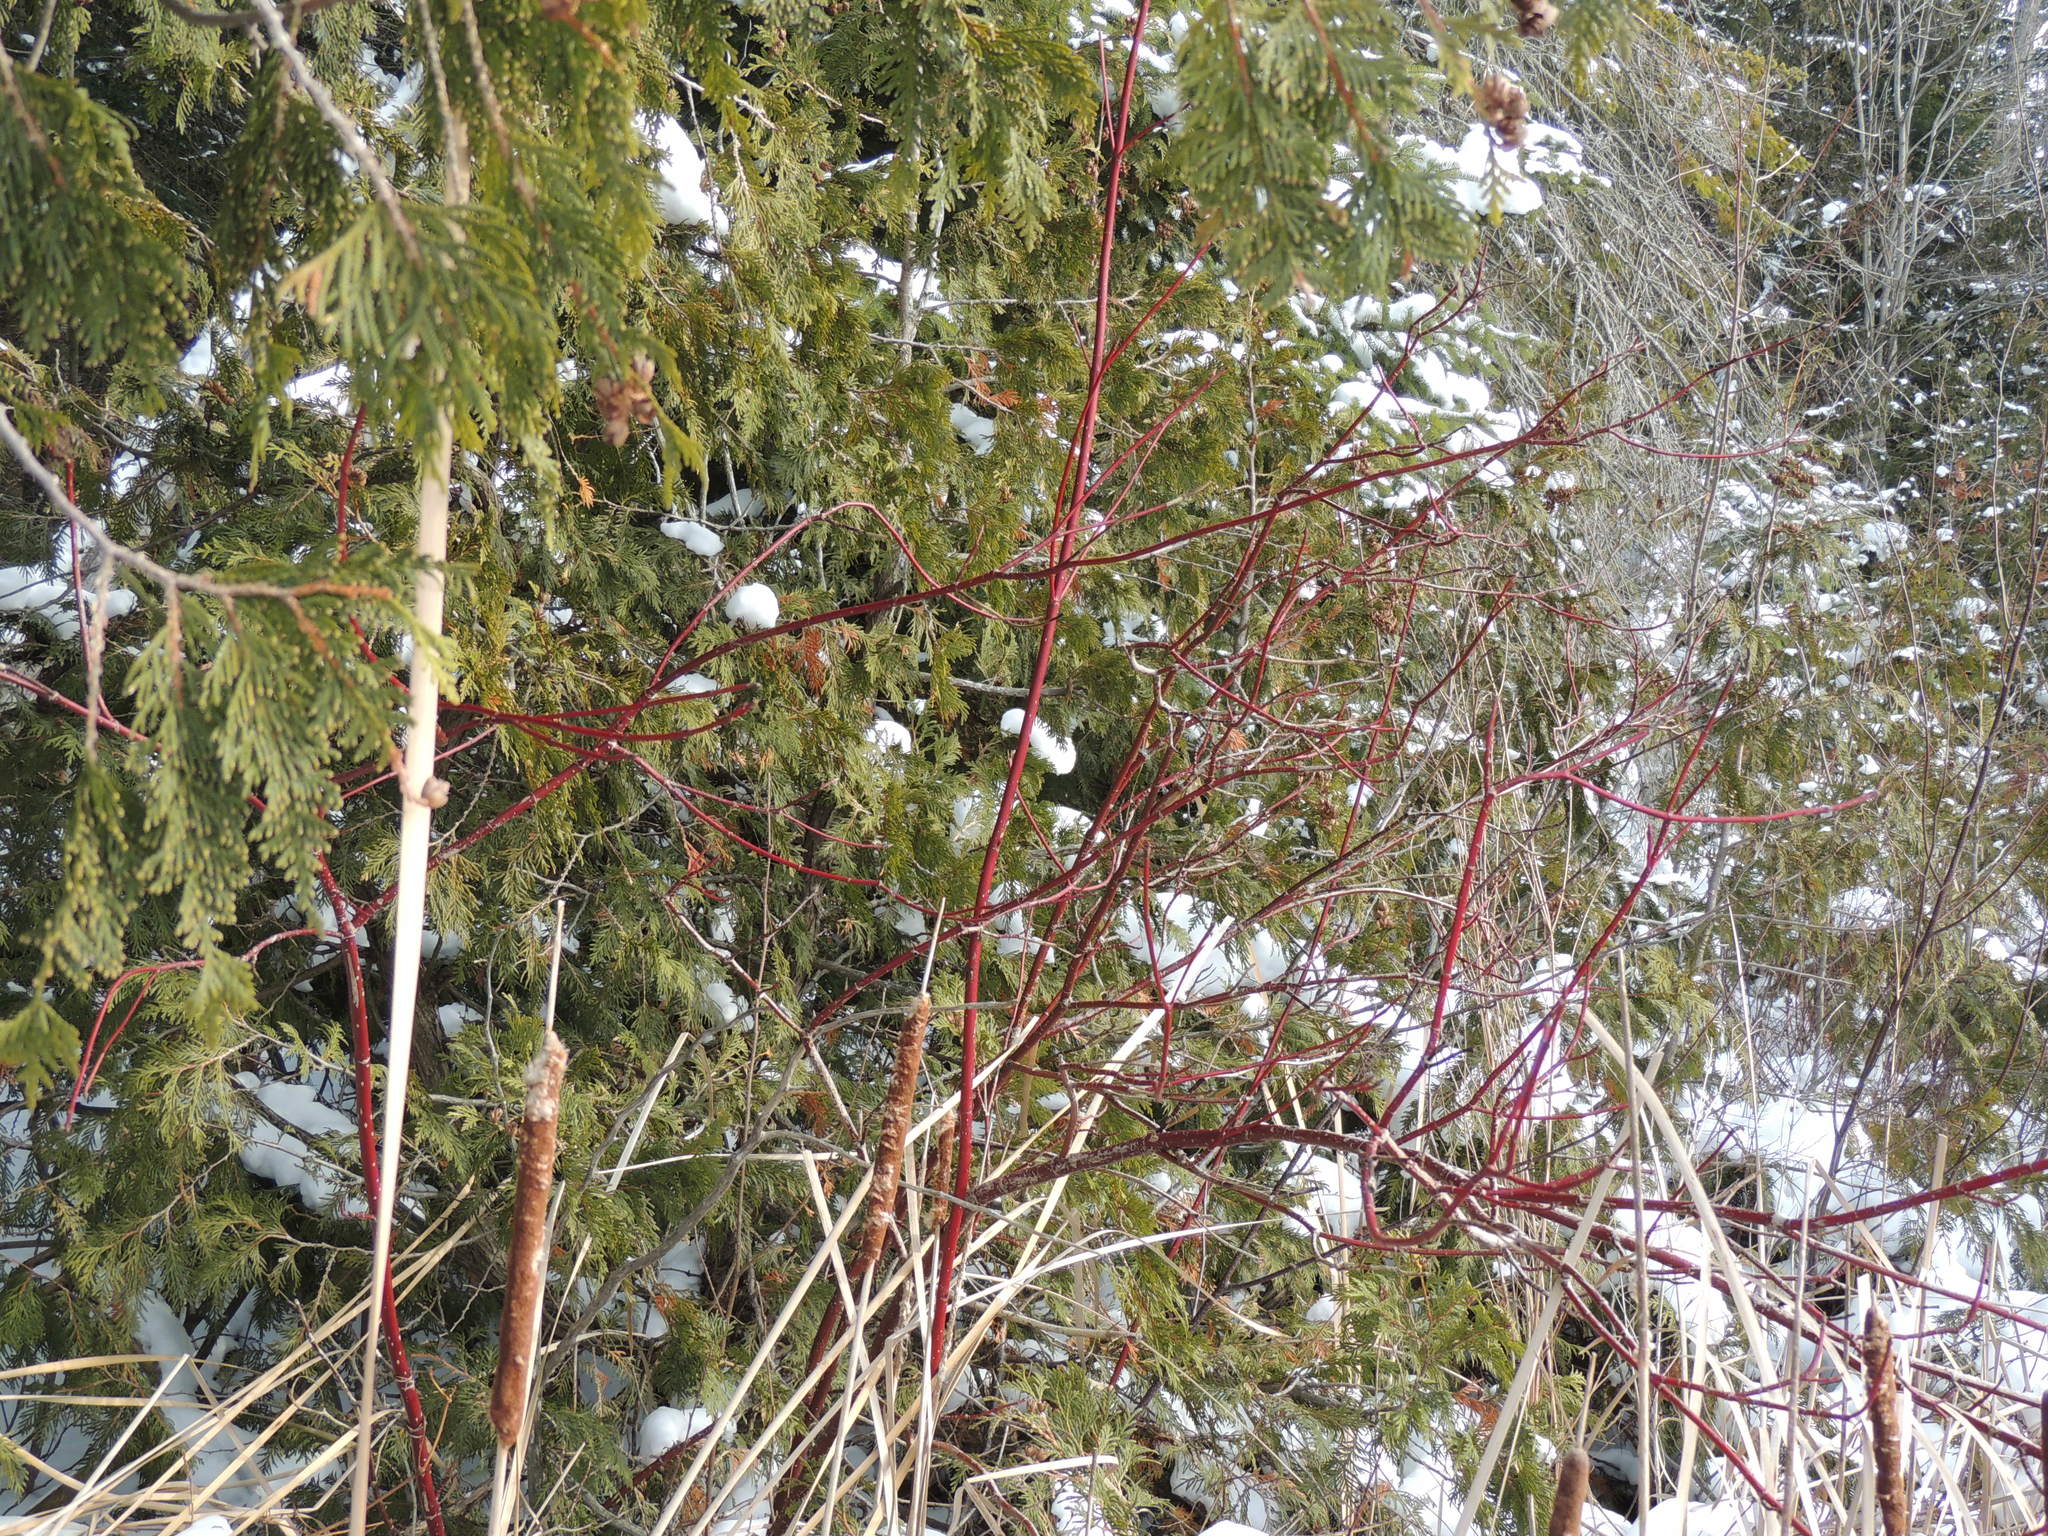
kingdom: Plantae
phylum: Tracheophyta
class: Magnoliopsida
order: Cornales
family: Cornaceae
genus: Cornus
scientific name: Cornus sericea
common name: Red-osier dogwood
